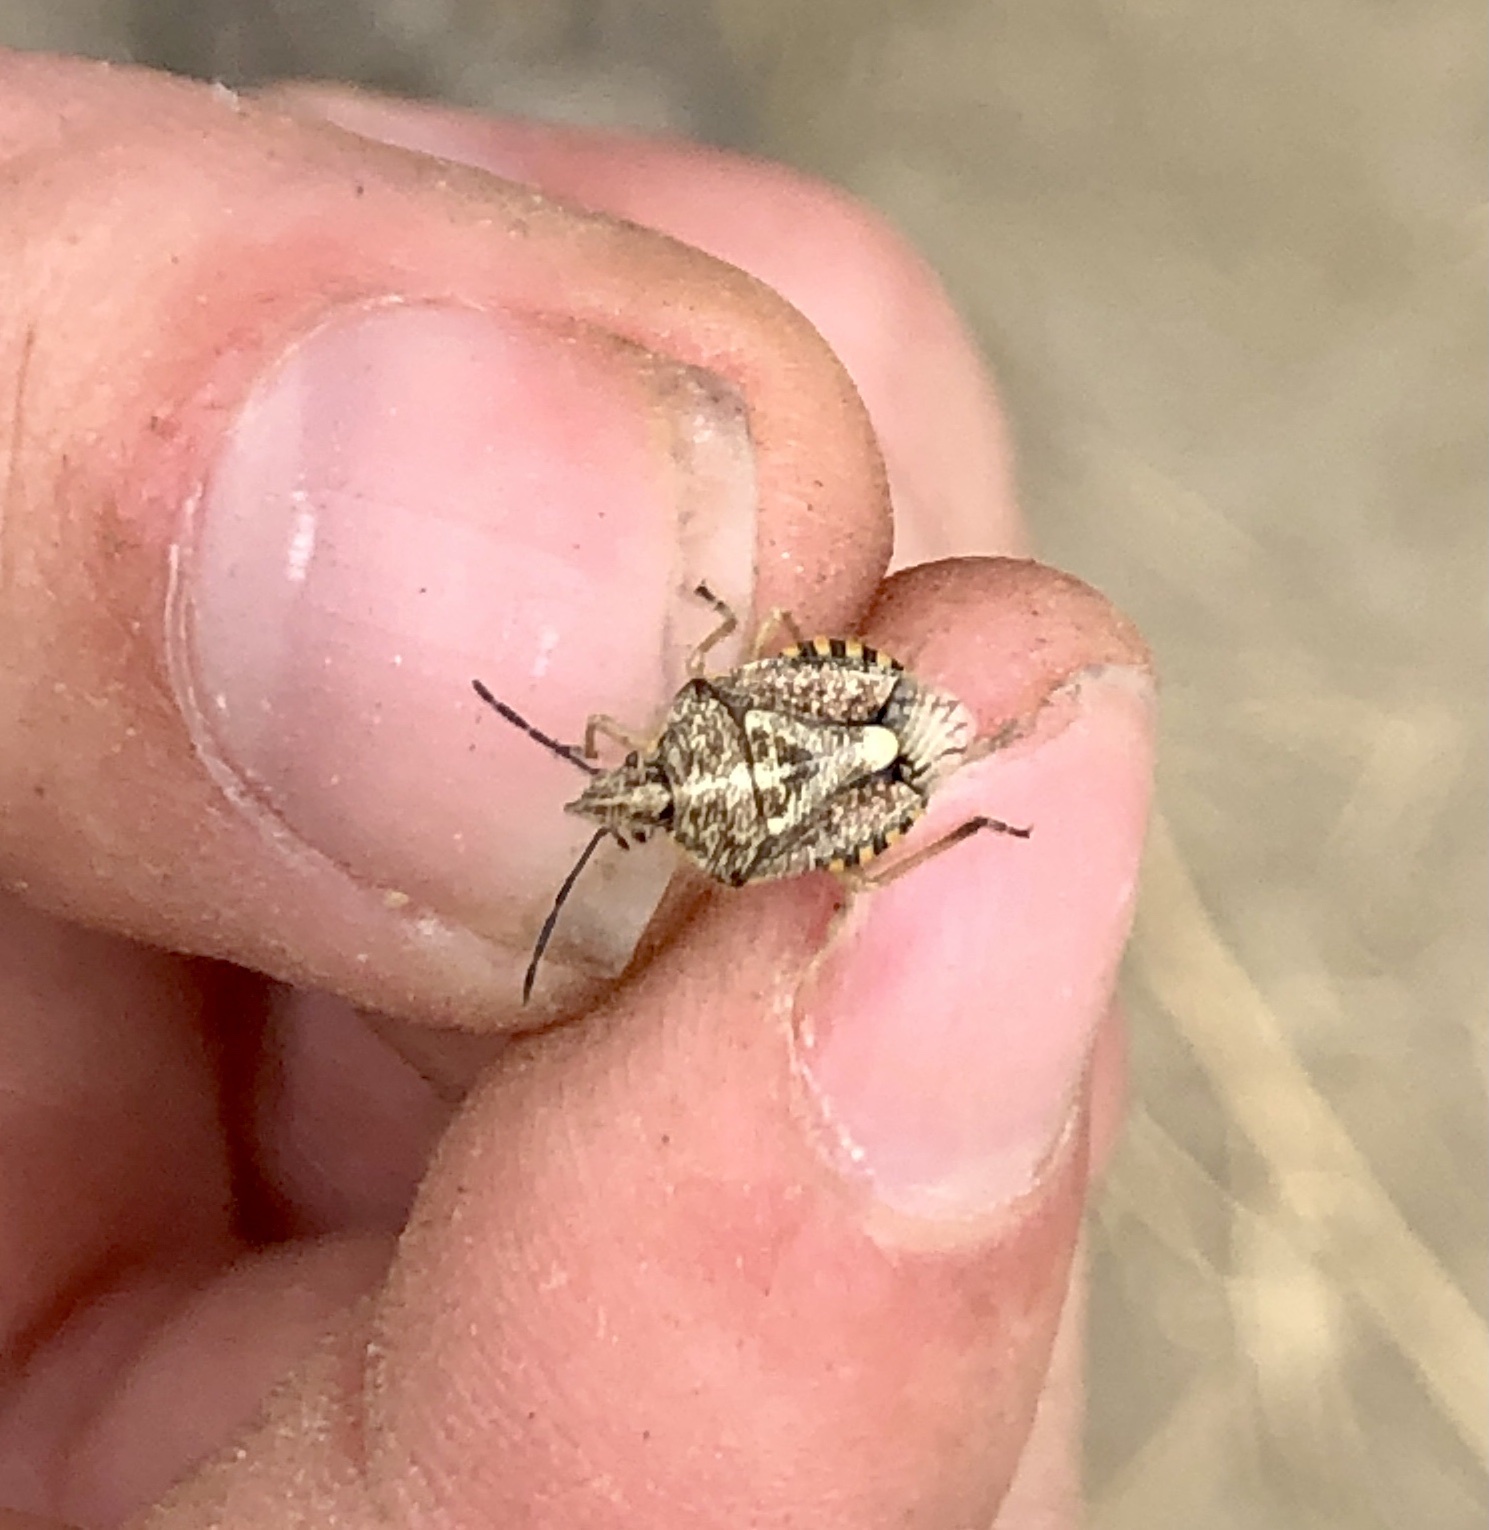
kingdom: Animalia
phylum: Arthropoda
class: Insecta
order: Hemiptera
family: Pentatomidae
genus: Agonoscelis
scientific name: Agonoscelis puberula
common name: African cluster bug
